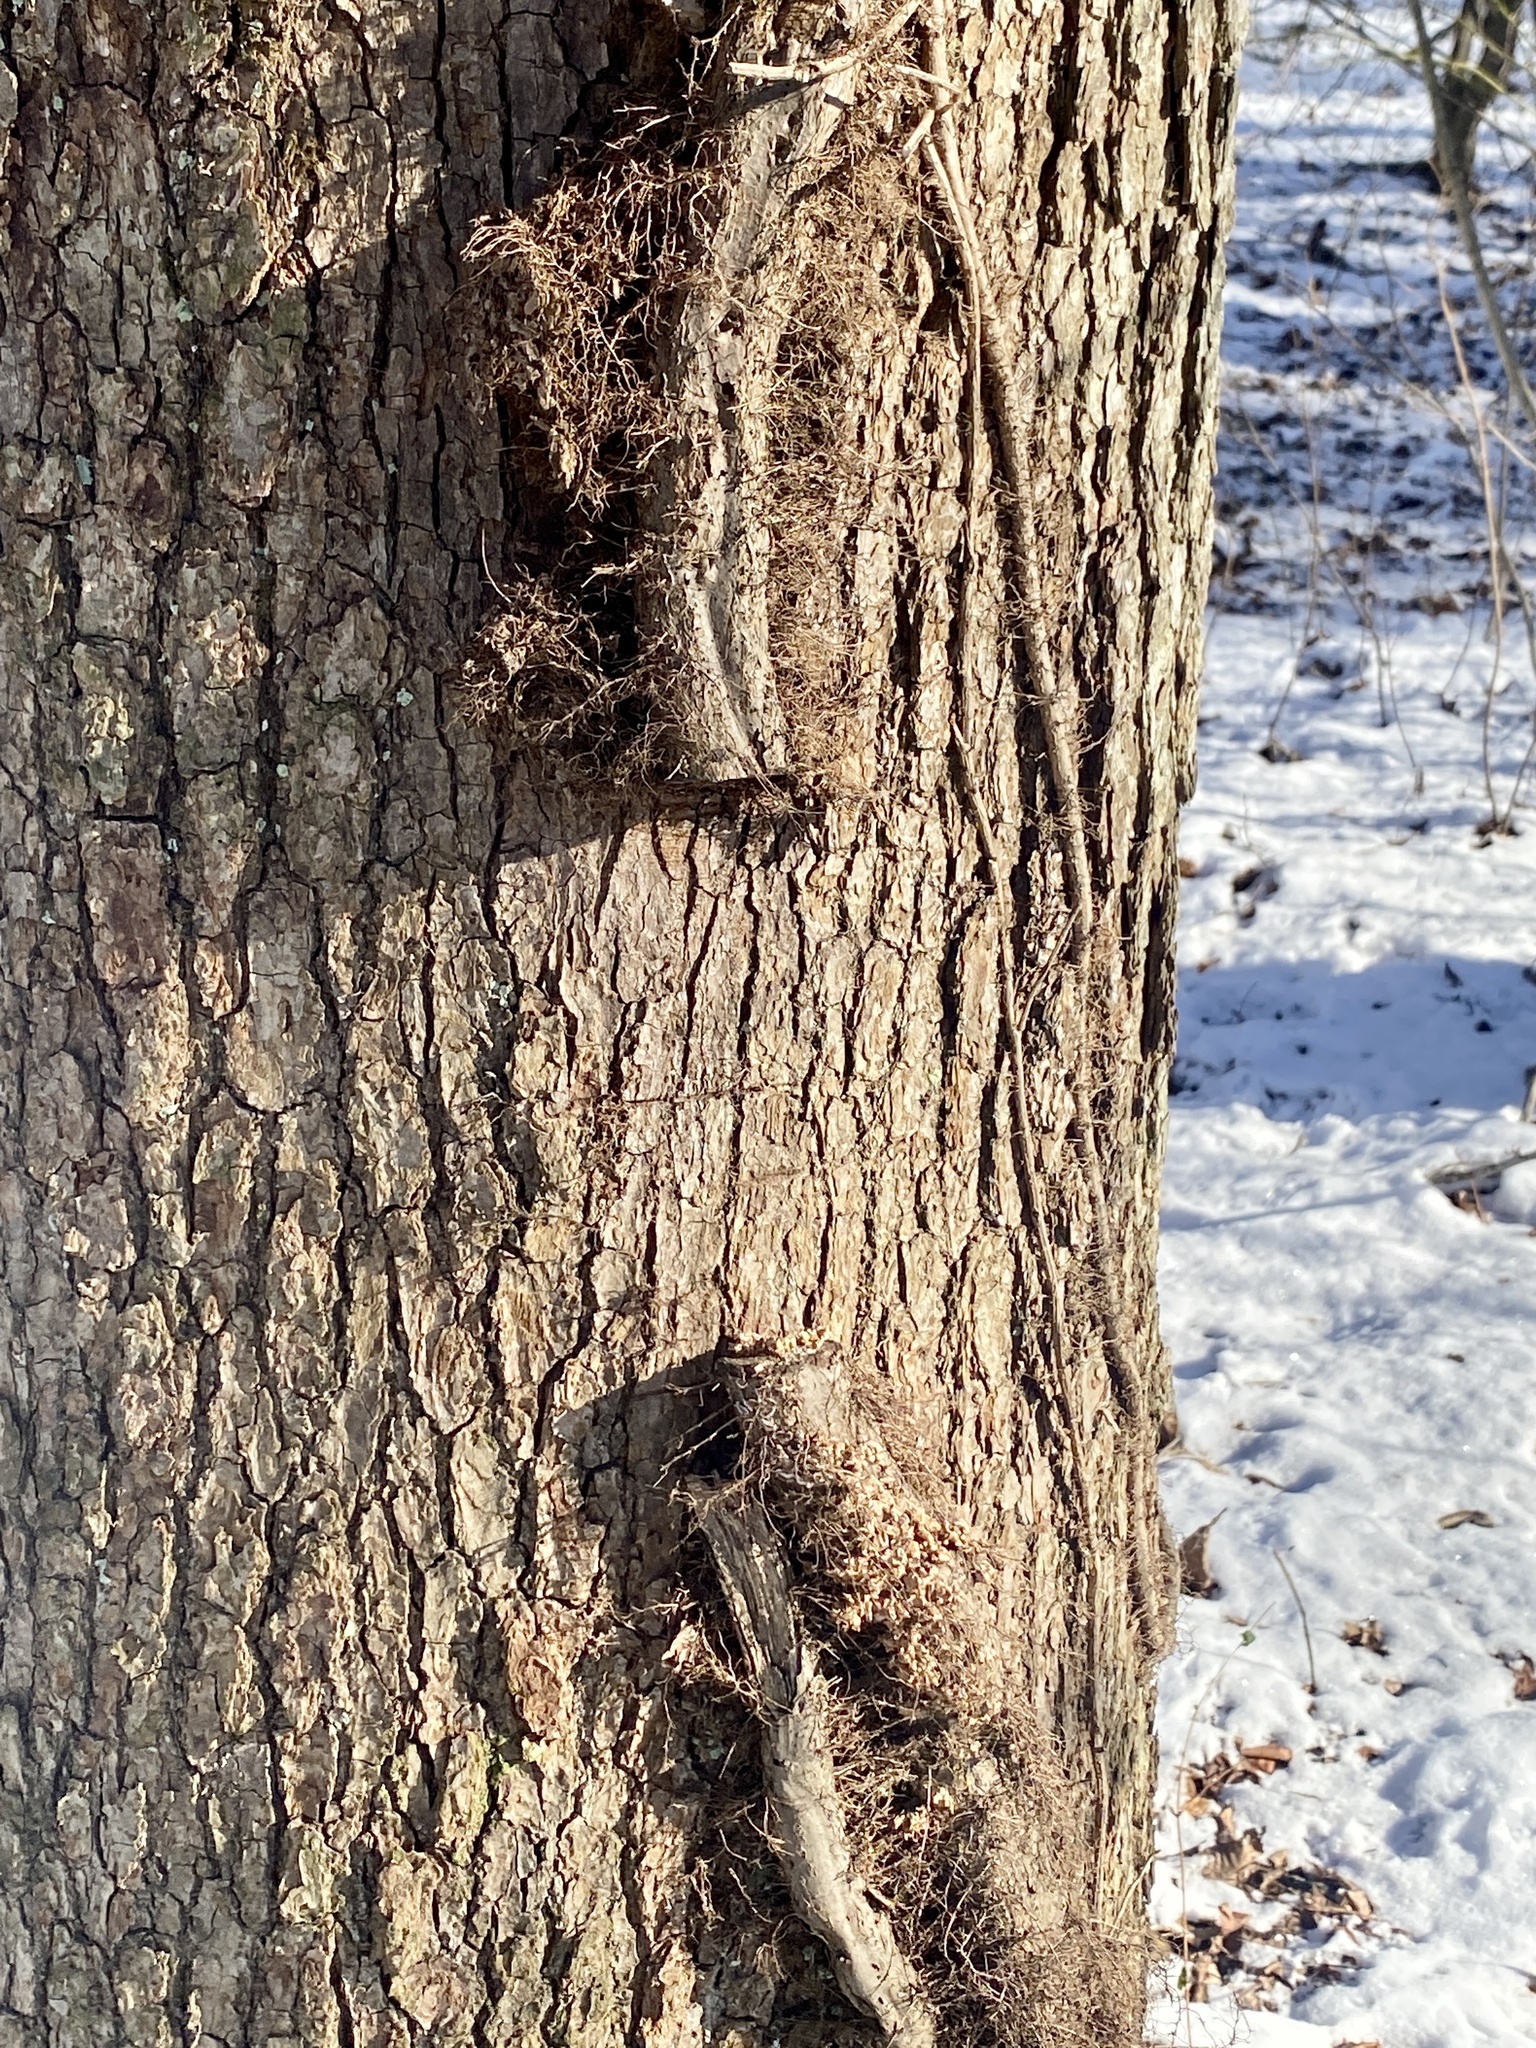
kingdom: Plantae
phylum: Tracheophyta
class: Magnoliopsida
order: Sapindales
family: Anacardiaceae
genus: Toxicodendron
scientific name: Toxicodendron radicans
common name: Poison ivy
